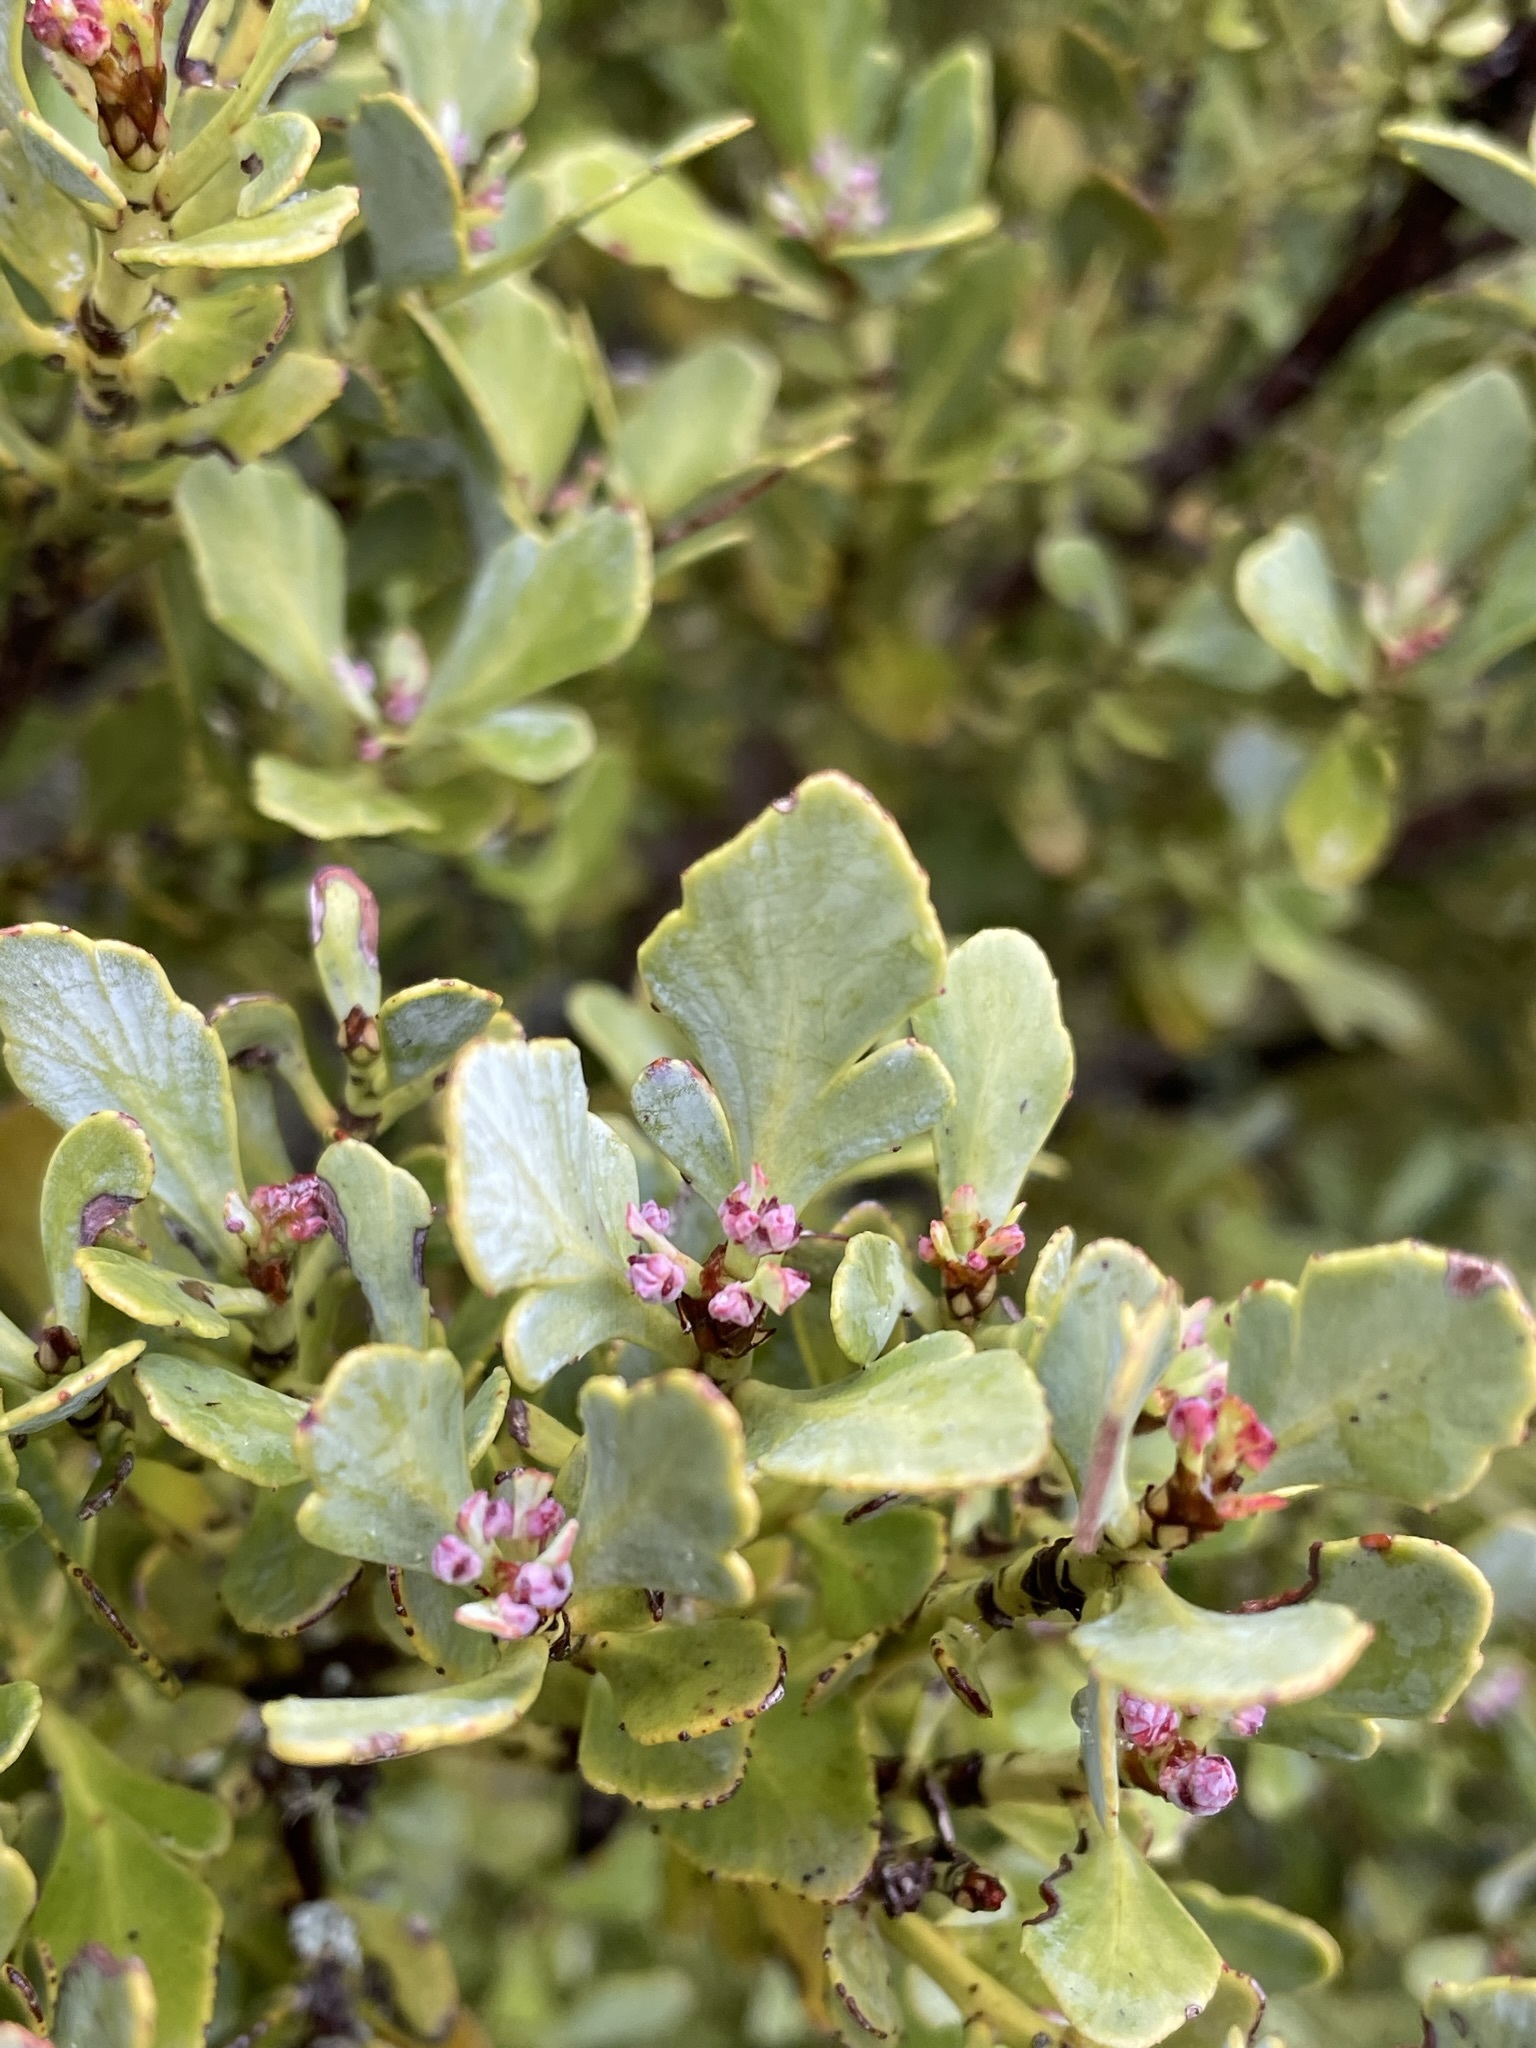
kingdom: Plantae
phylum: Tracheophyta
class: Pinopsida
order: Pinales
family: Phyllocladaceae
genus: Phyllocladus
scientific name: Phyllocladus trichomanoides
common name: Celery pine
